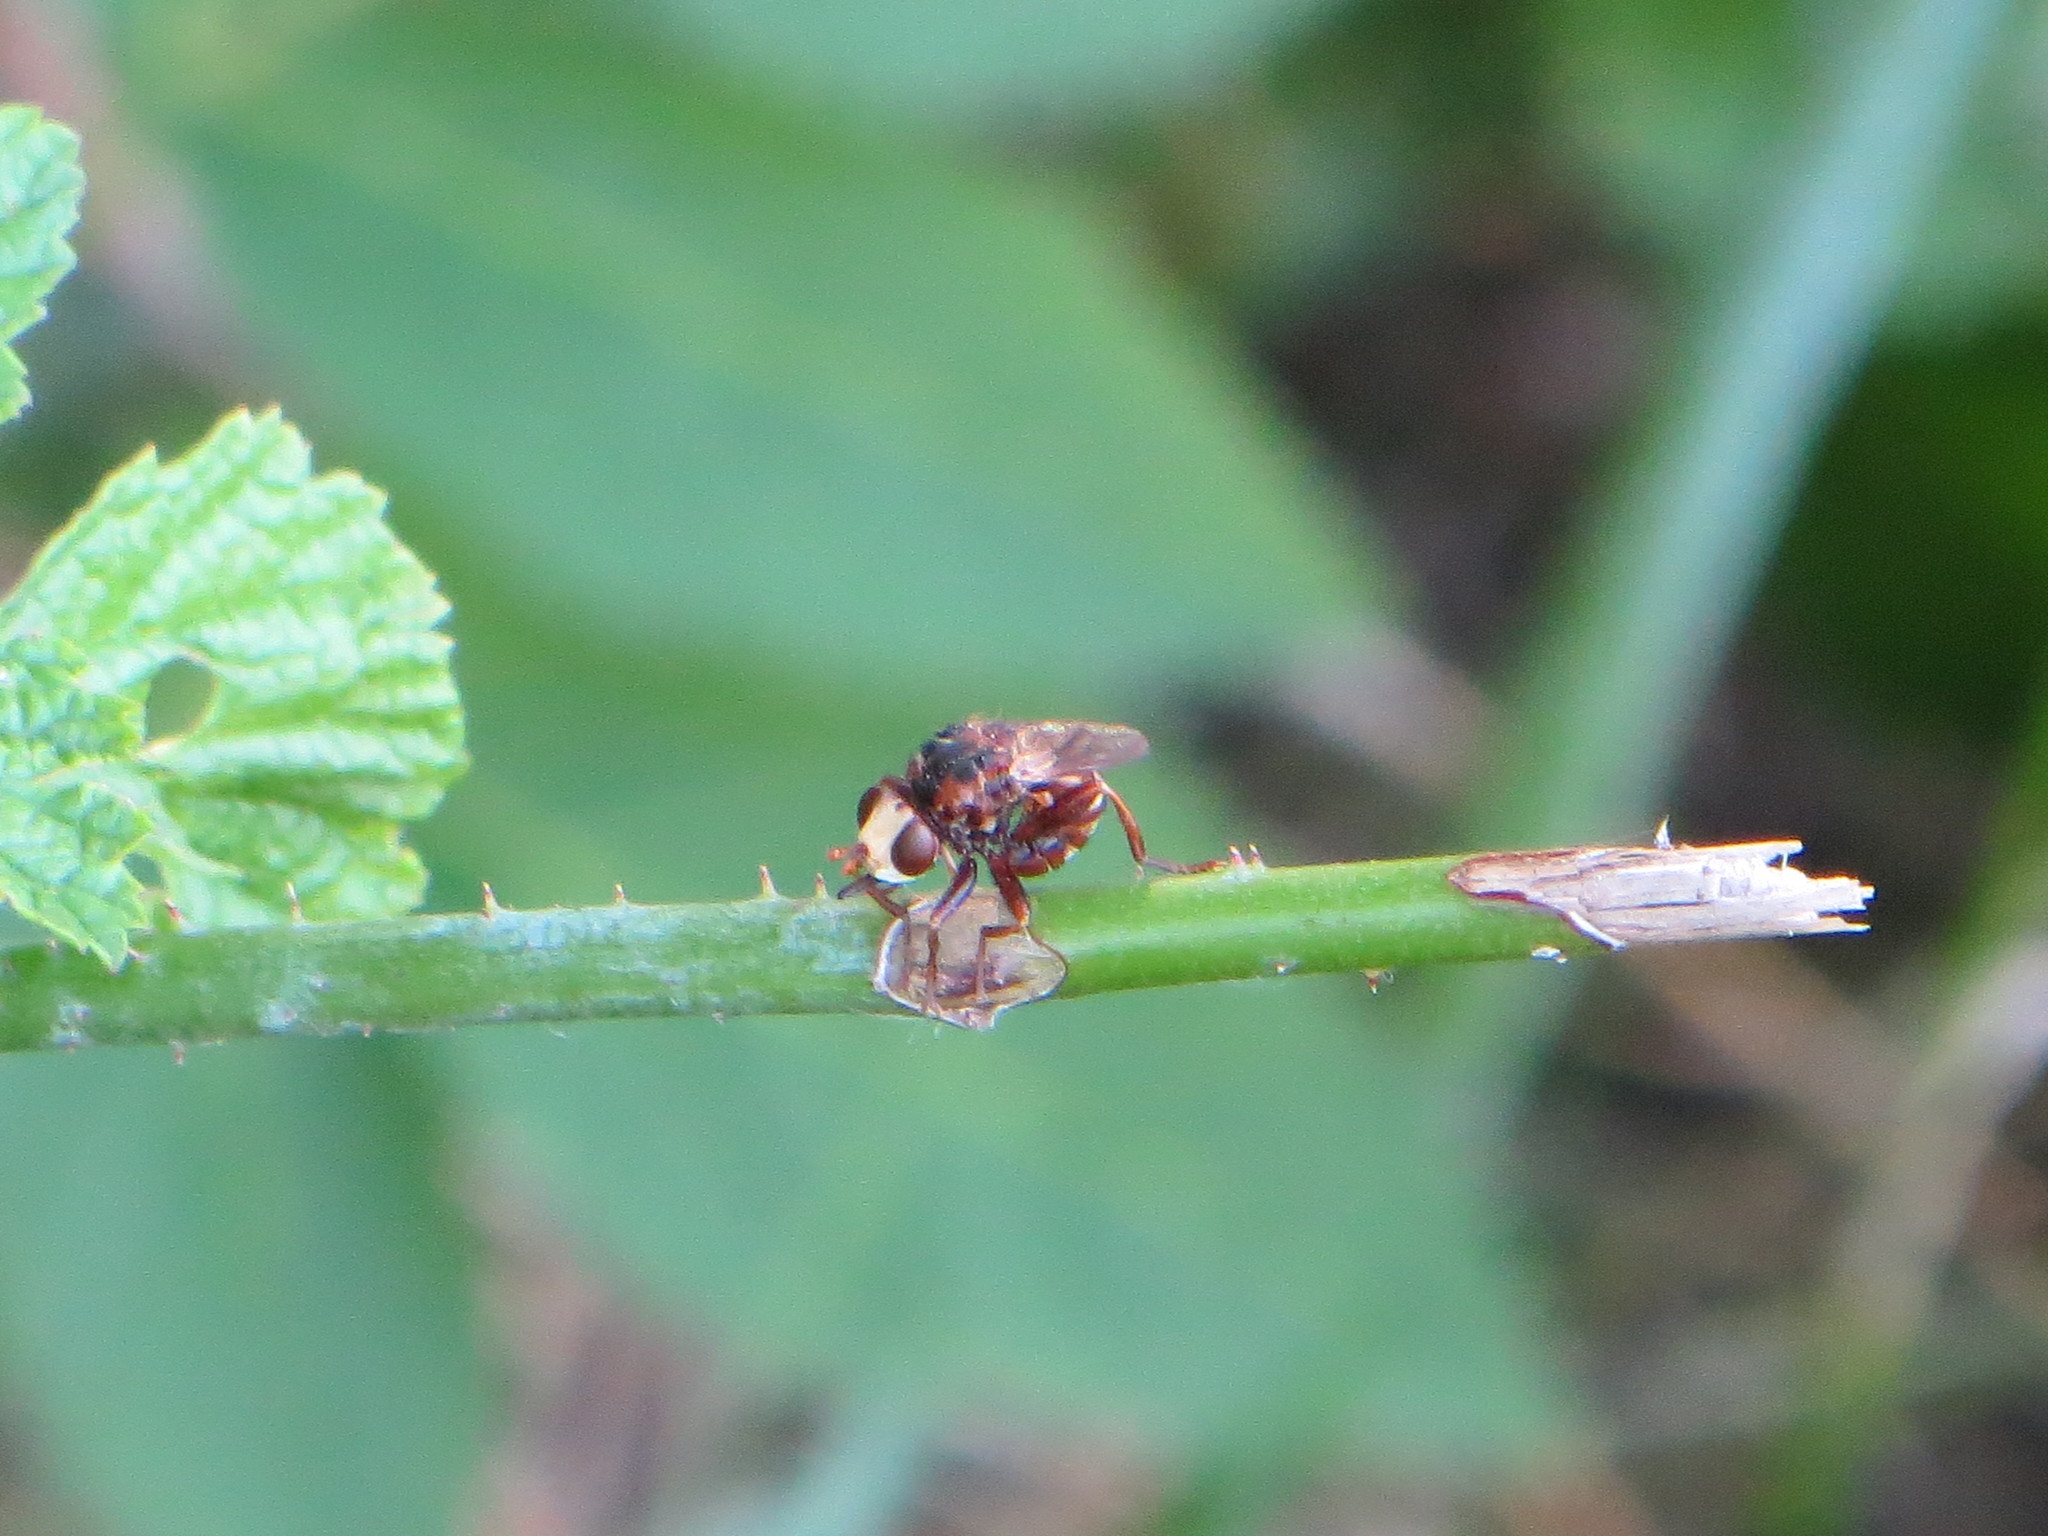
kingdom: Animalia
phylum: Arthropoda
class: Insecta
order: Diptera
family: Conopidae
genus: Sicus
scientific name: Sicus ferrugineus
